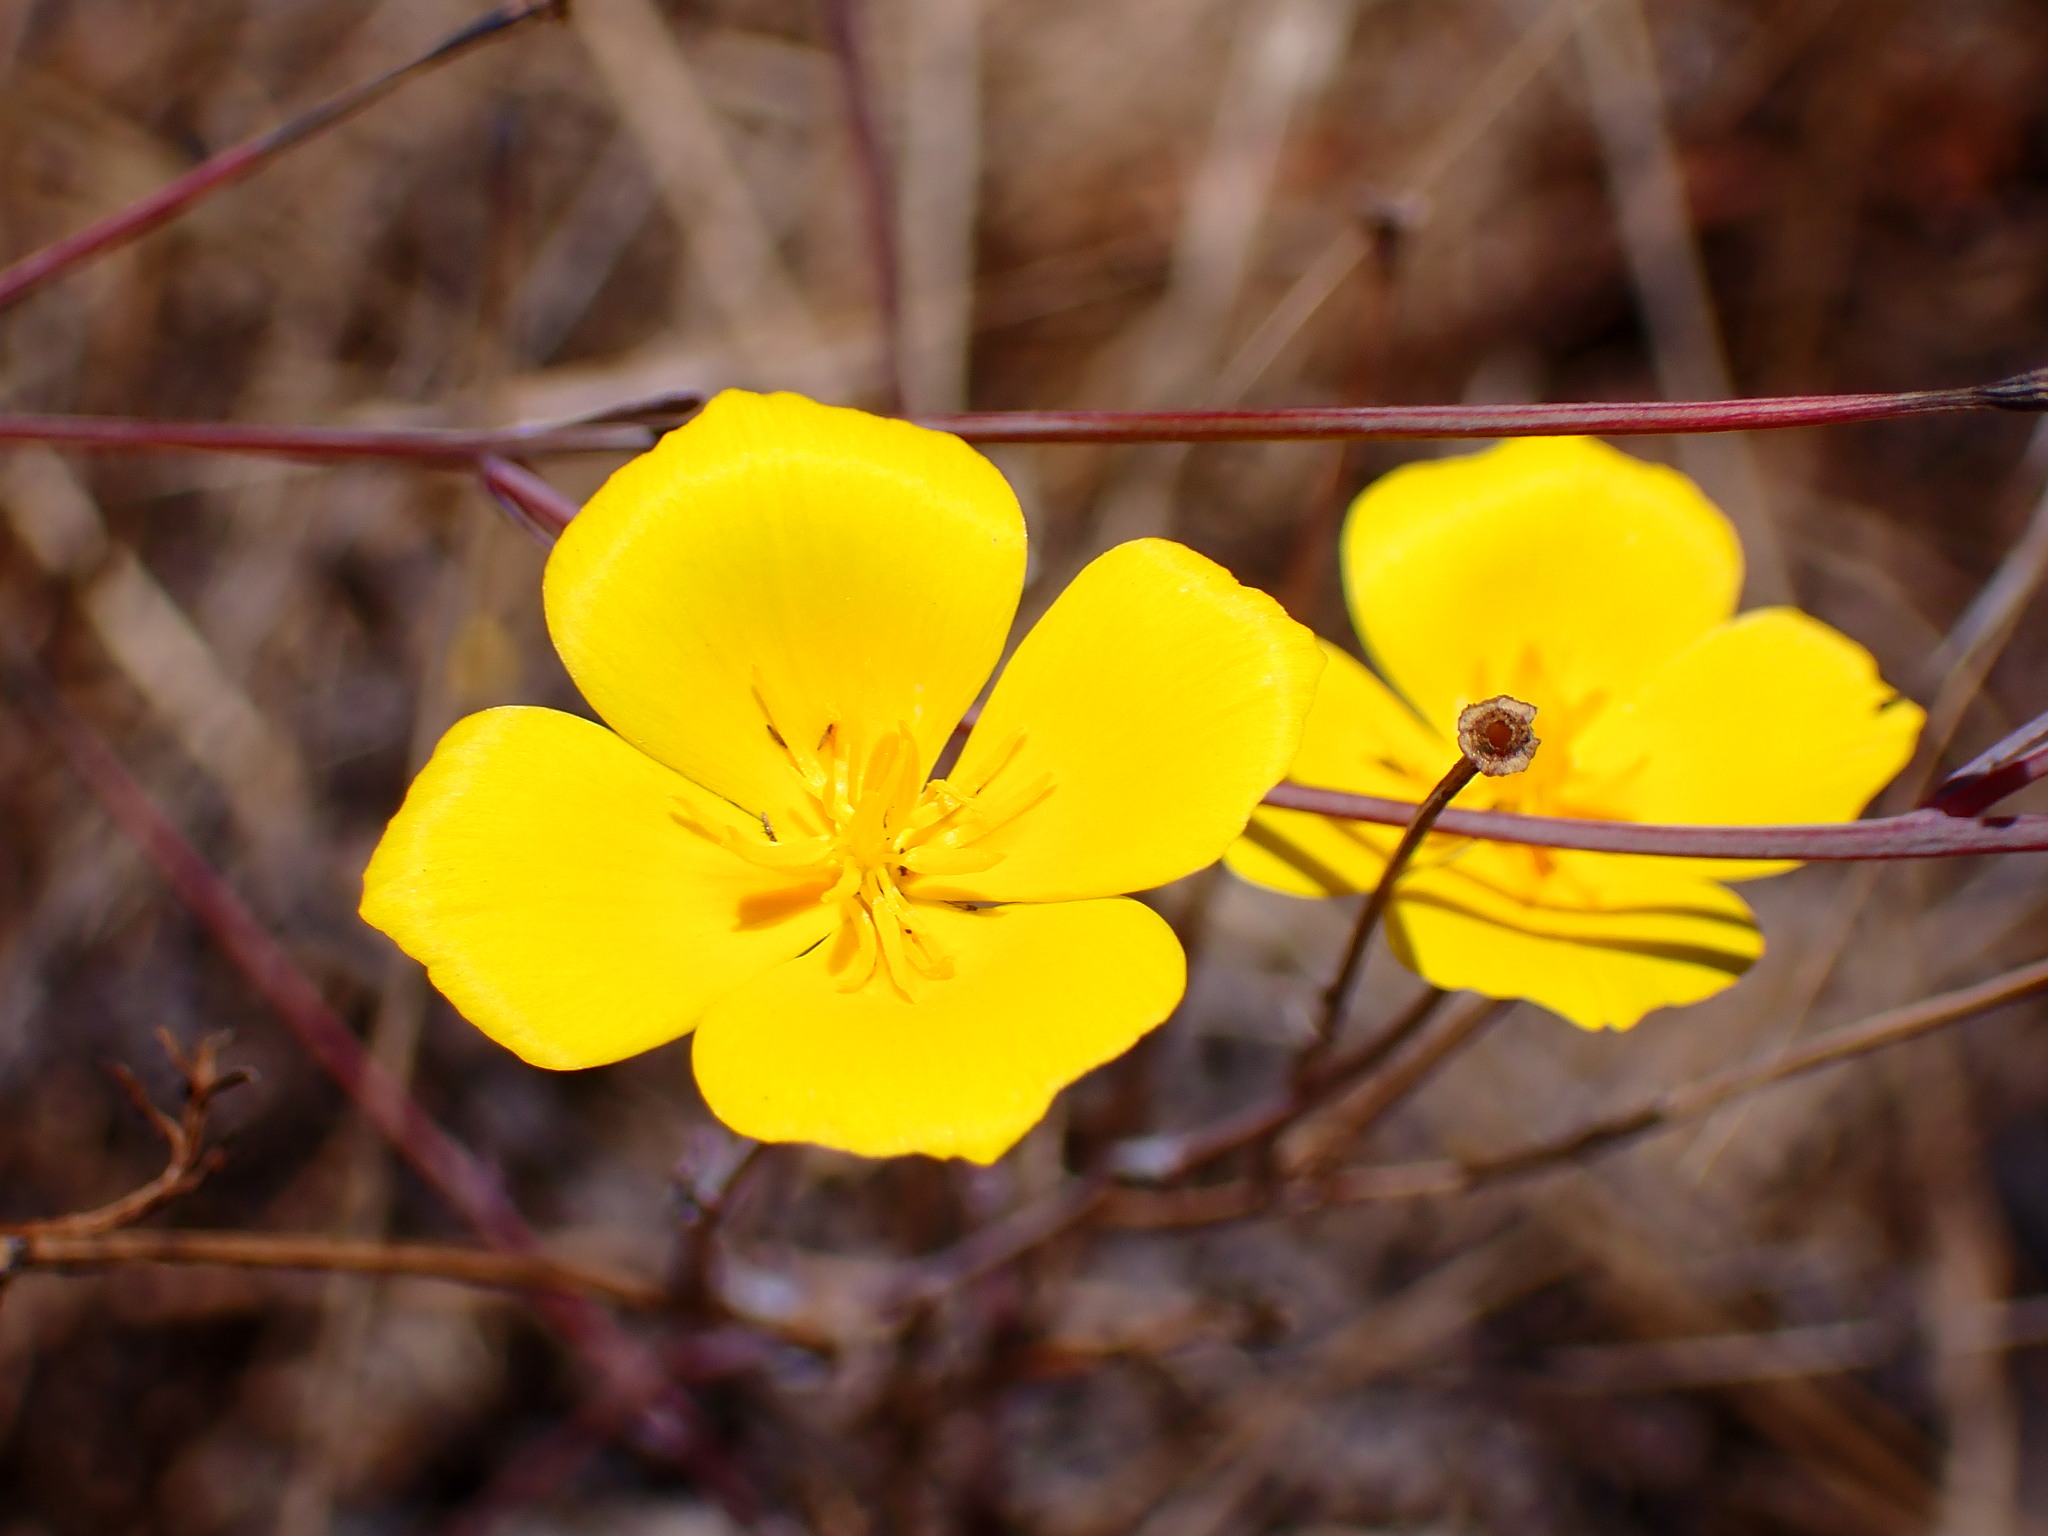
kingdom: Plantae
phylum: Tracheophyta
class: Magnoliopsida
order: Ranunculales
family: Papaveraceae
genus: Eschscholzia
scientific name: Eschscholzia californica
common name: California poppy
